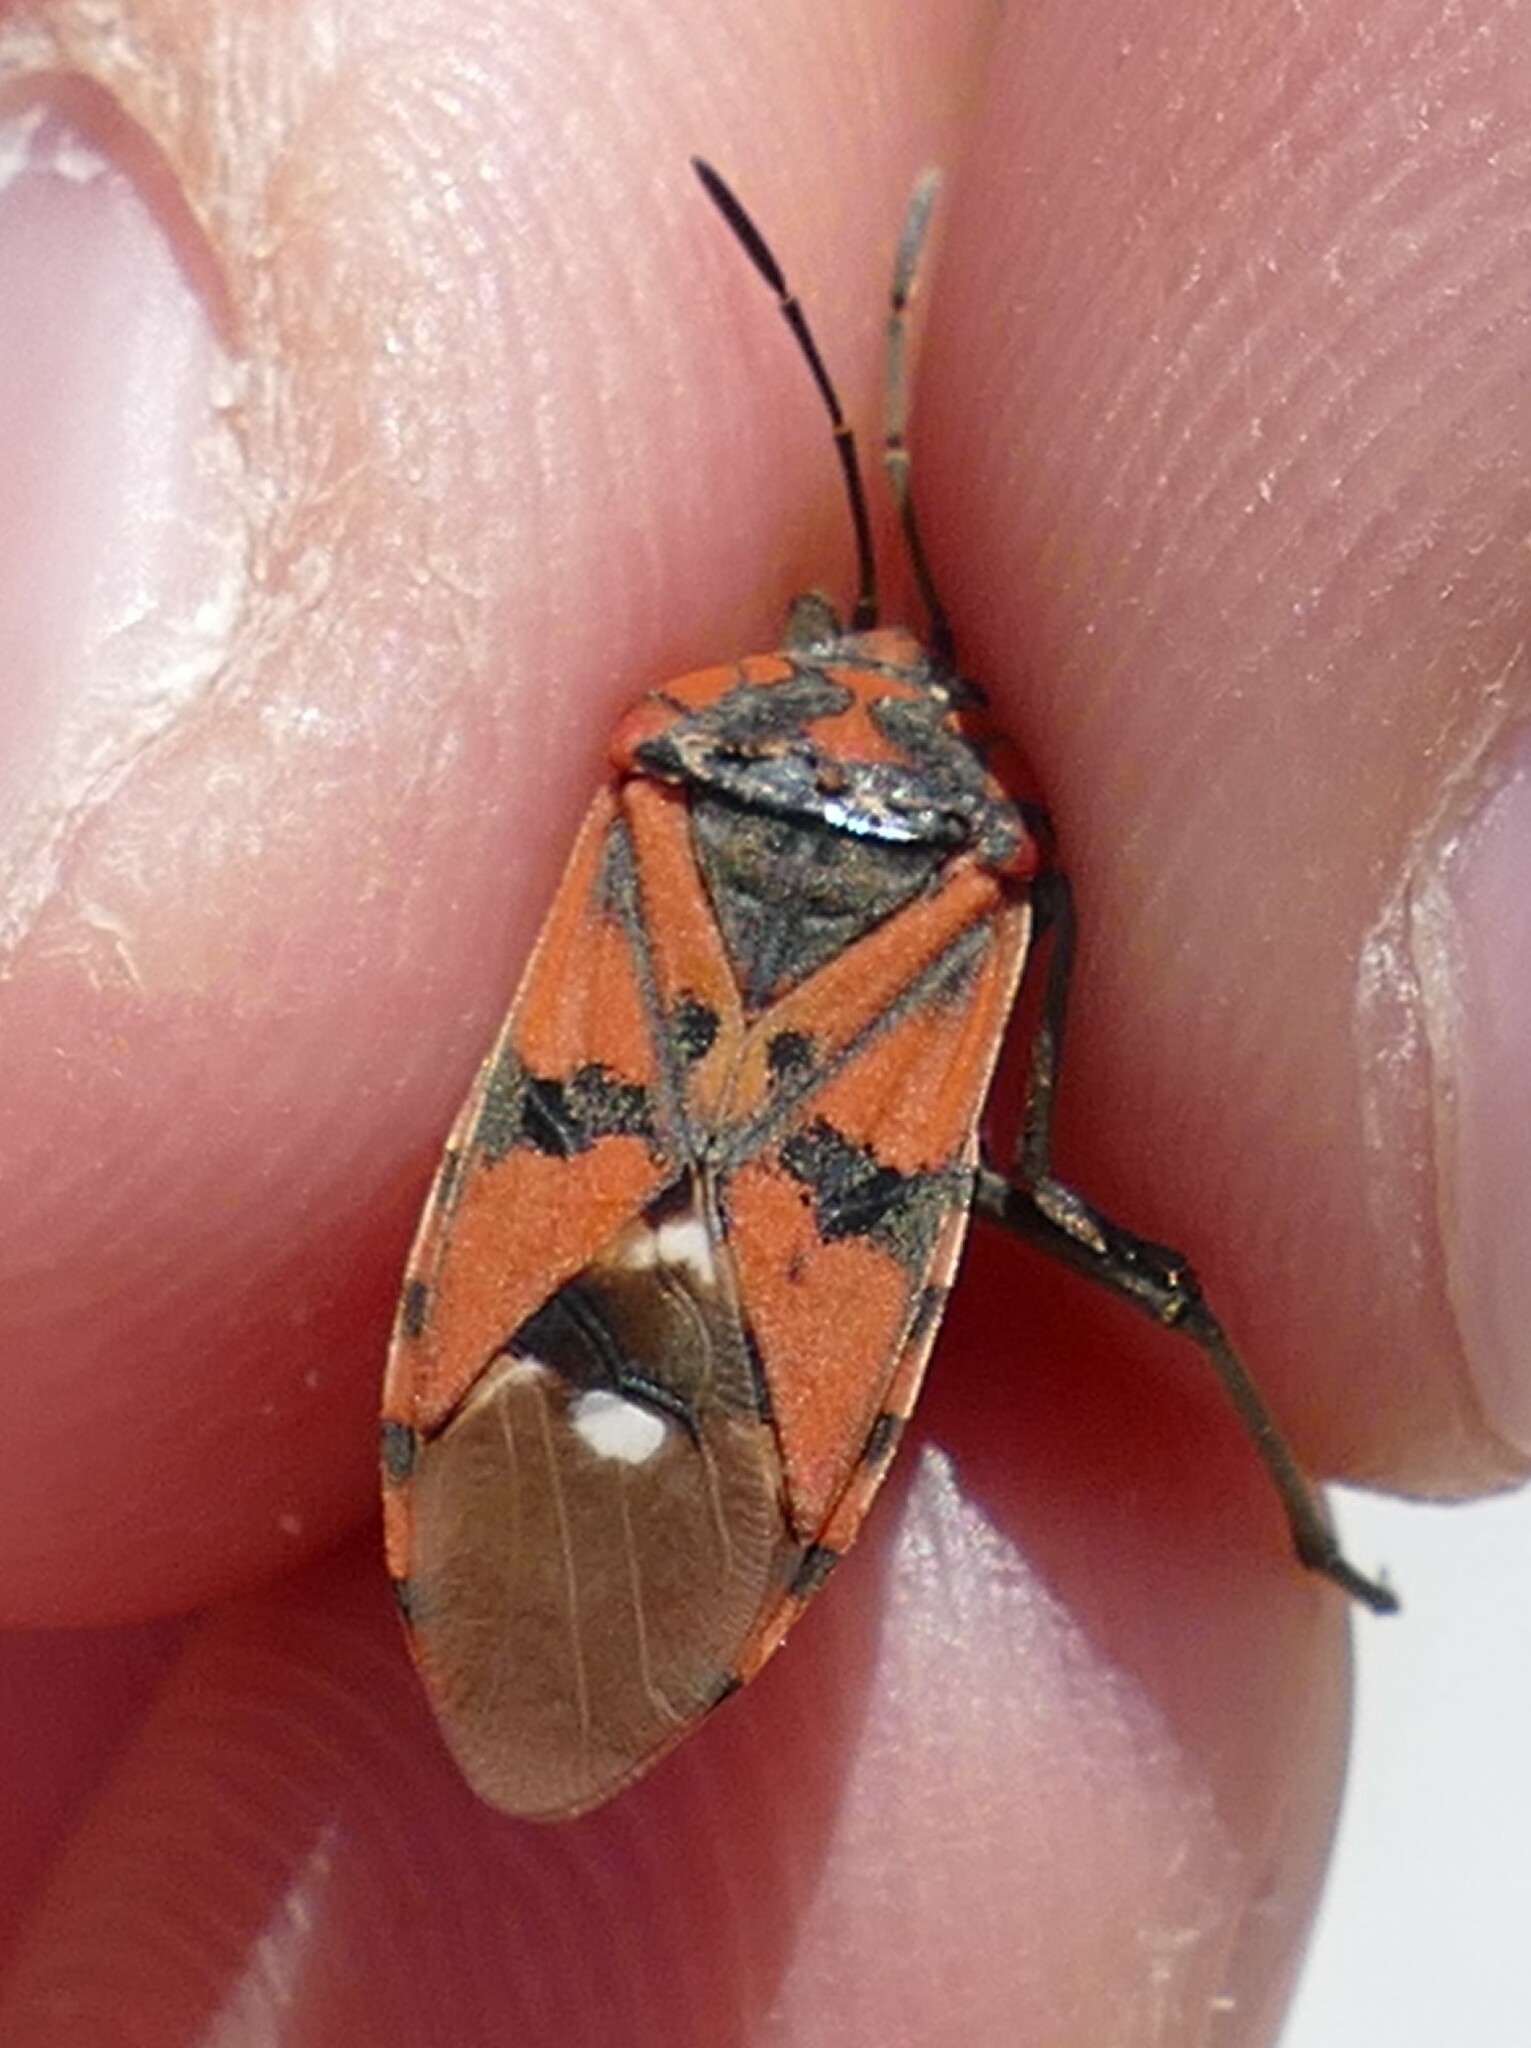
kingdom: Animalia
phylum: Arthropoda
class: Insecta
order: Hemiptera
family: Lygaeidae
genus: Spilostethus
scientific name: Spilostethus pandurus
